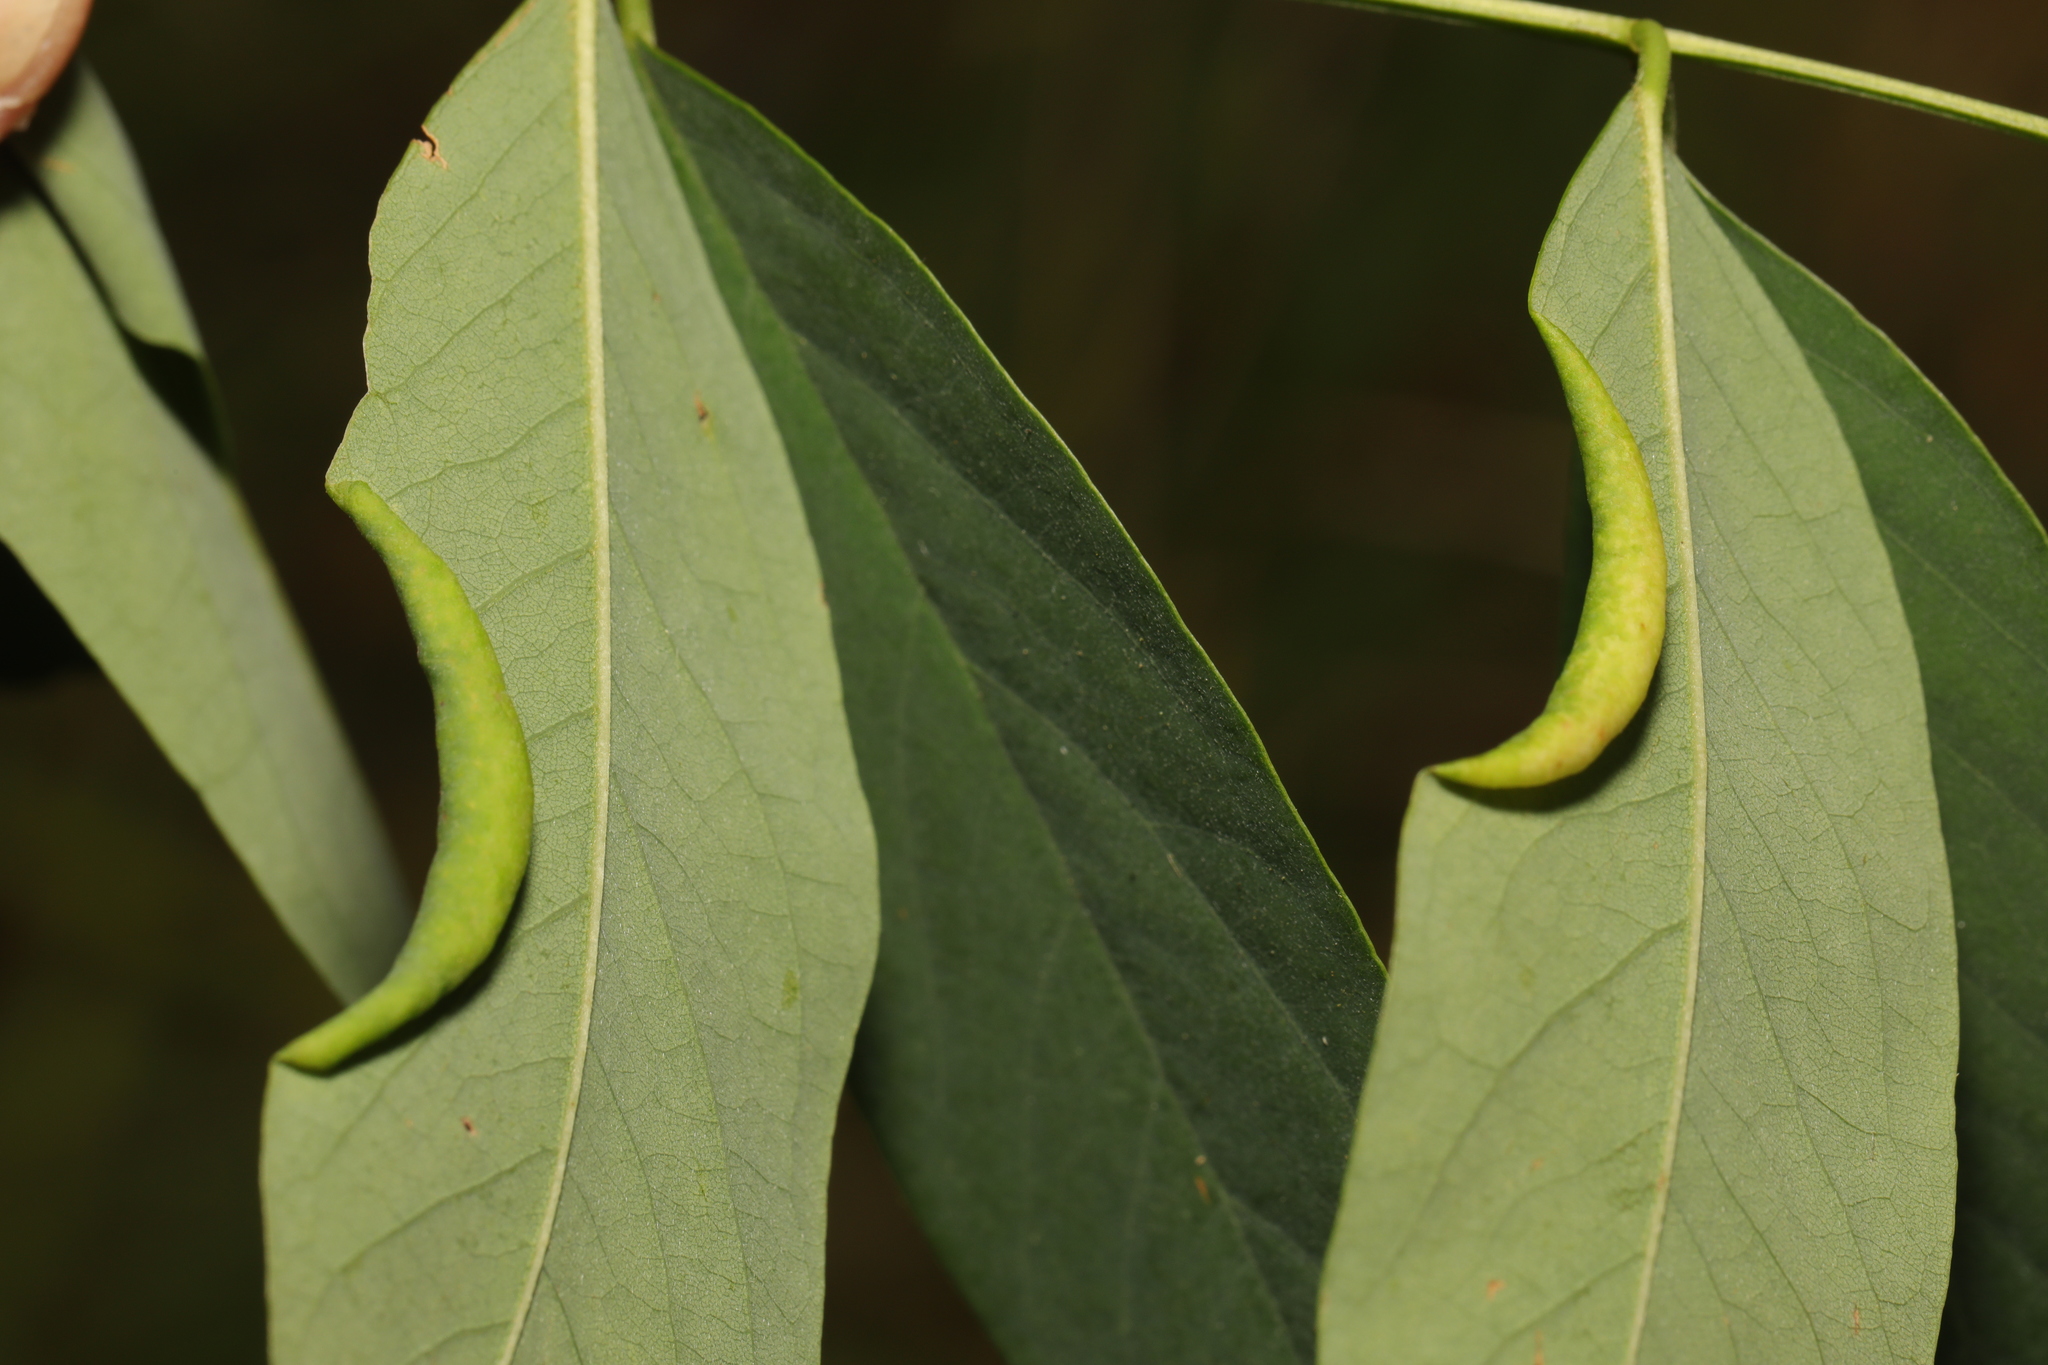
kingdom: Animalia
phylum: Arthropoda
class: Insecta
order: Diptera
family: Cecidomyiidae
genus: Obolodiplosis
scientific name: Obolodiplosis robiniae
